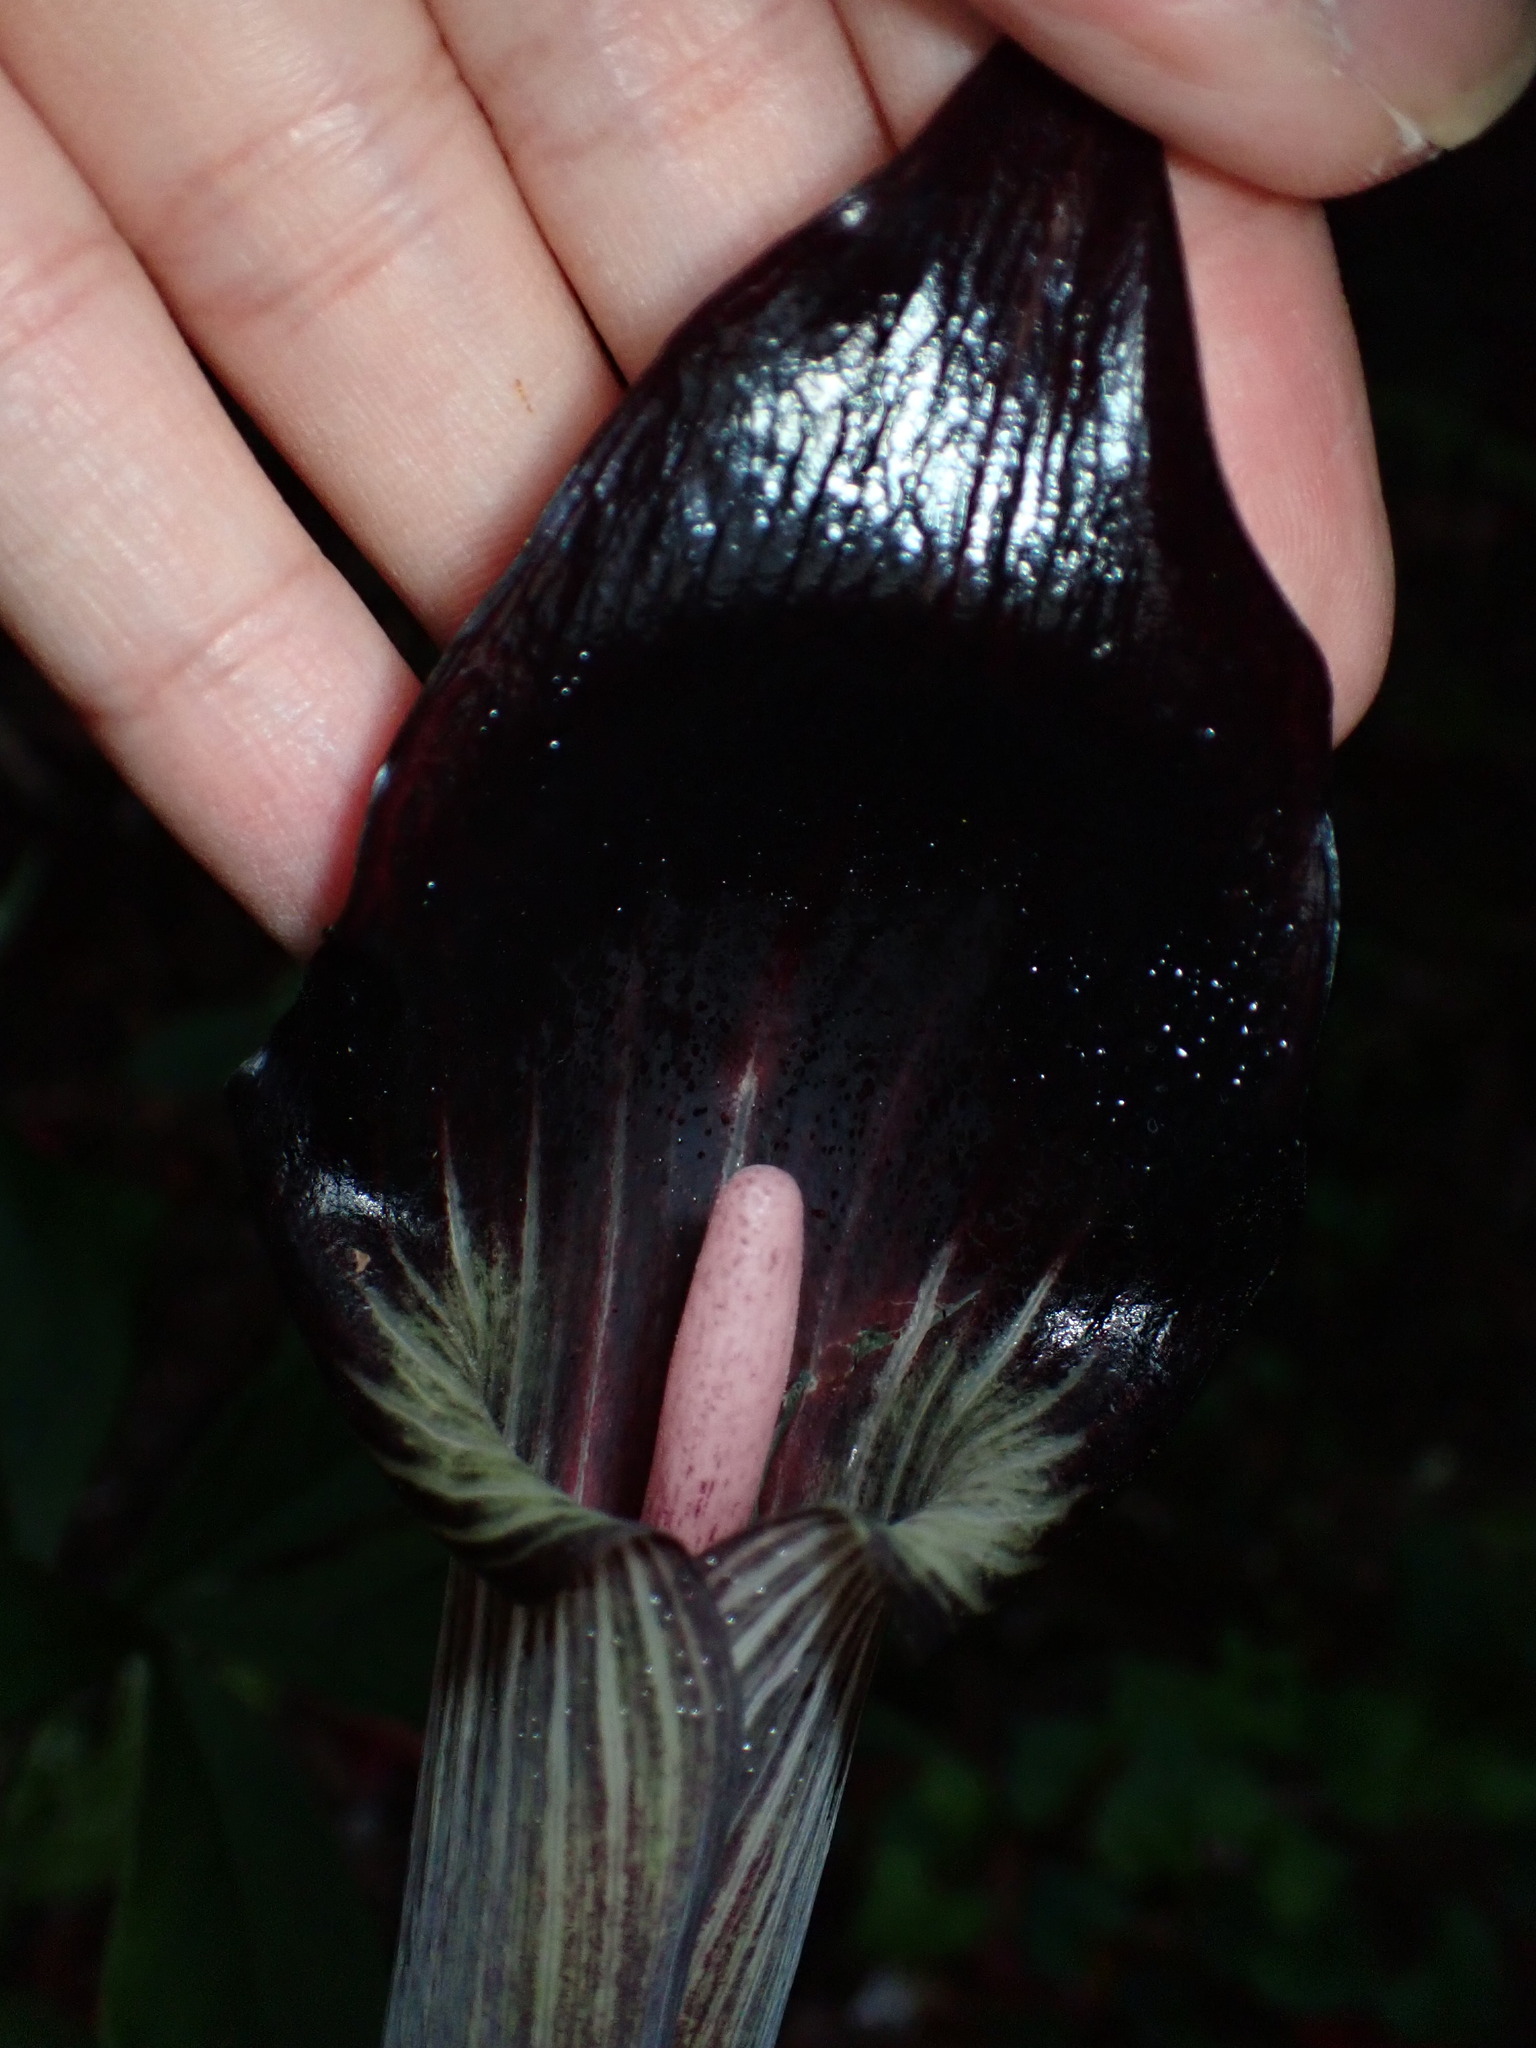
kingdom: Plantae
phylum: Tracheophyta
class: Liliopsida
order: Alismatales
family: Araceae
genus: Arisaema
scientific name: Arisaema mayebarae
